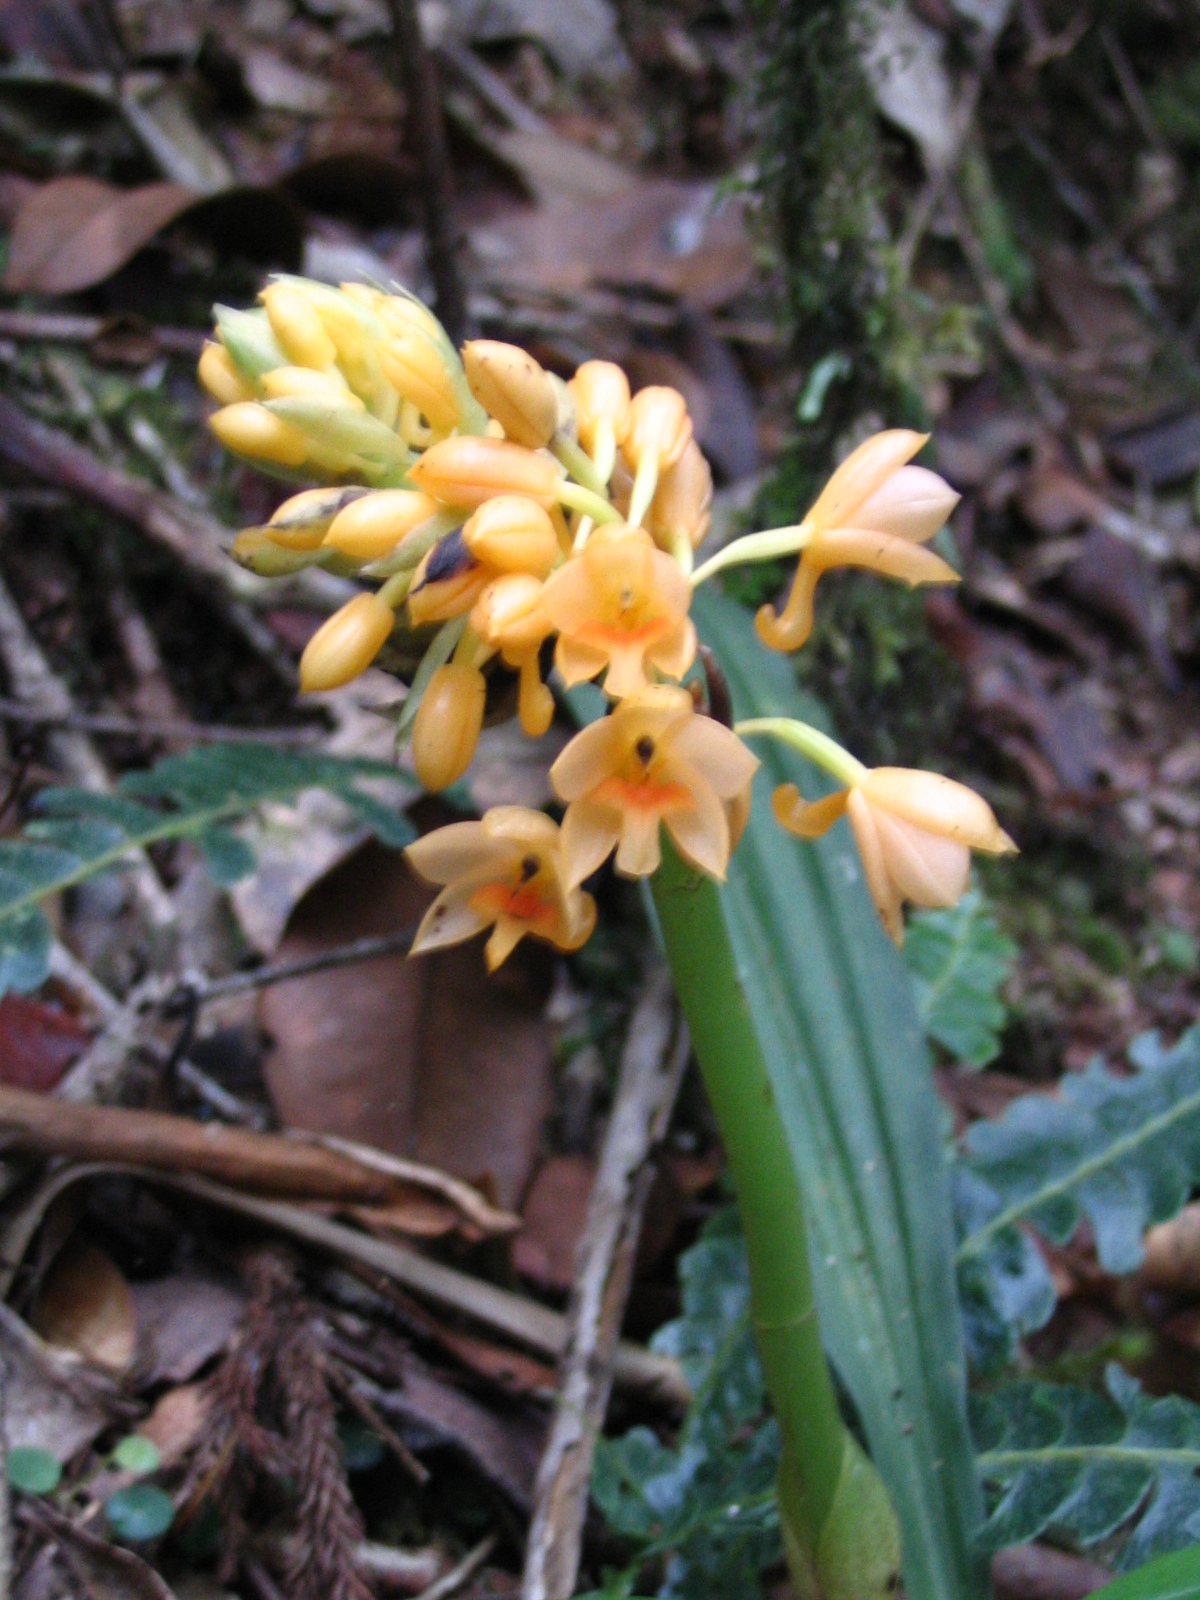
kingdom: Plantae
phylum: Tracheophyta
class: Liliopsida
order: Asparagales
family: Orchidaceae
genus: Calanthe
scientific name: Calanthe pulchra
